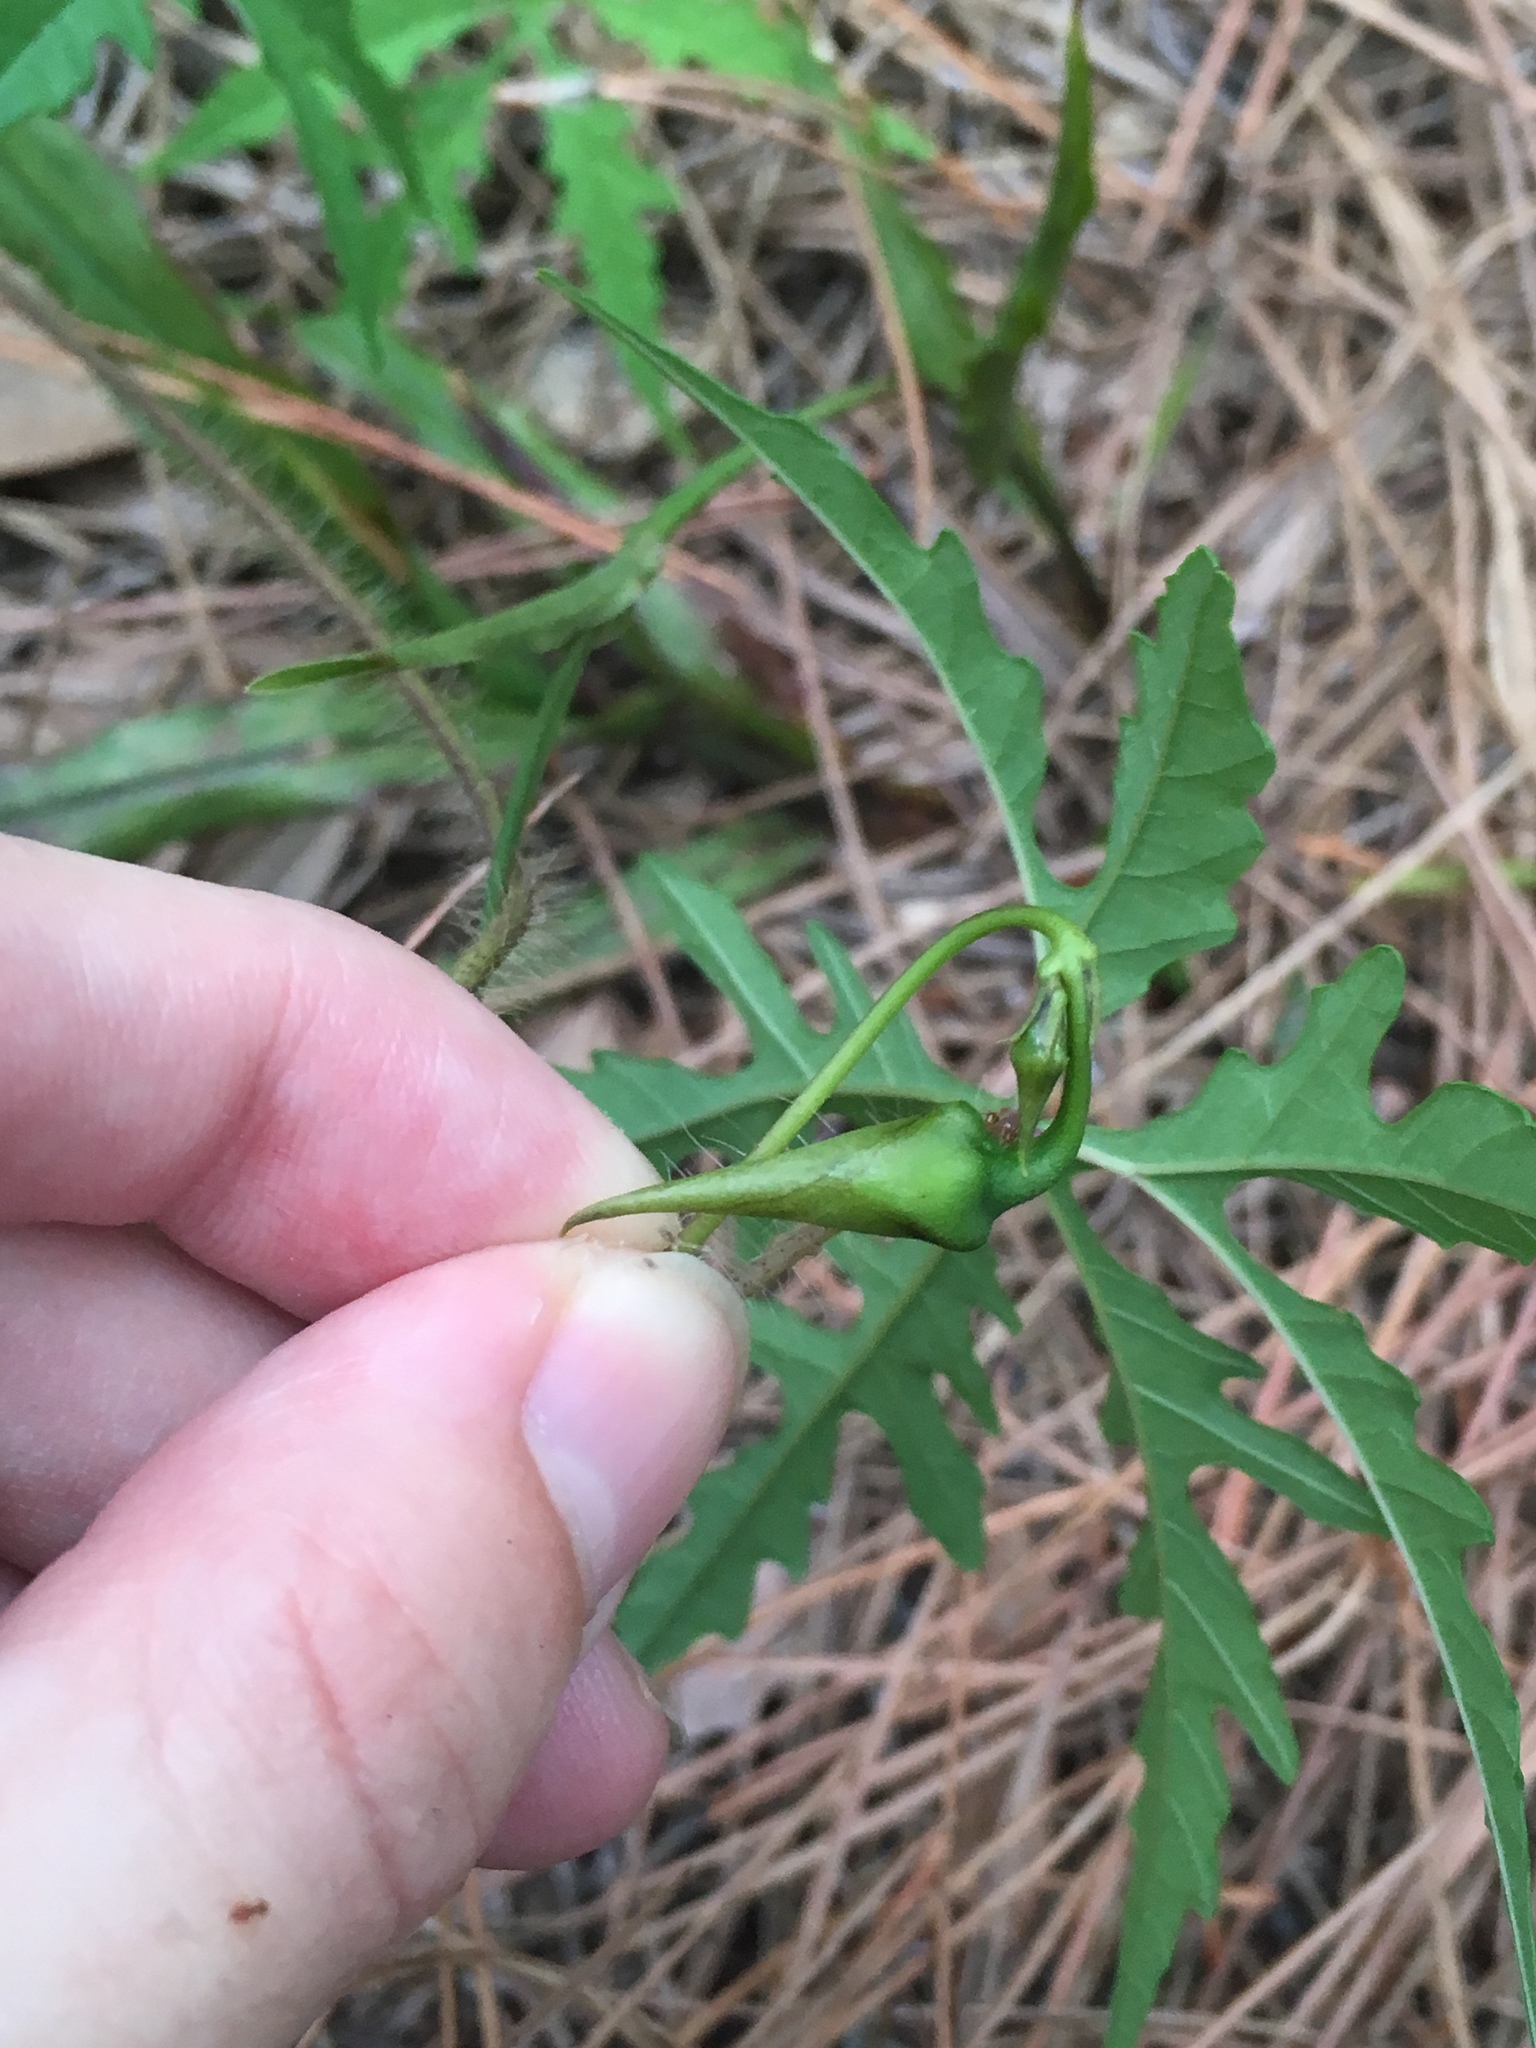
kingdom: Plantae
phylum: Tracheophyta
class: Magnoliopsida
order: Solanales
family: Convolvulaceae
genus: Distimake
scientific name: Distimake dissectus
